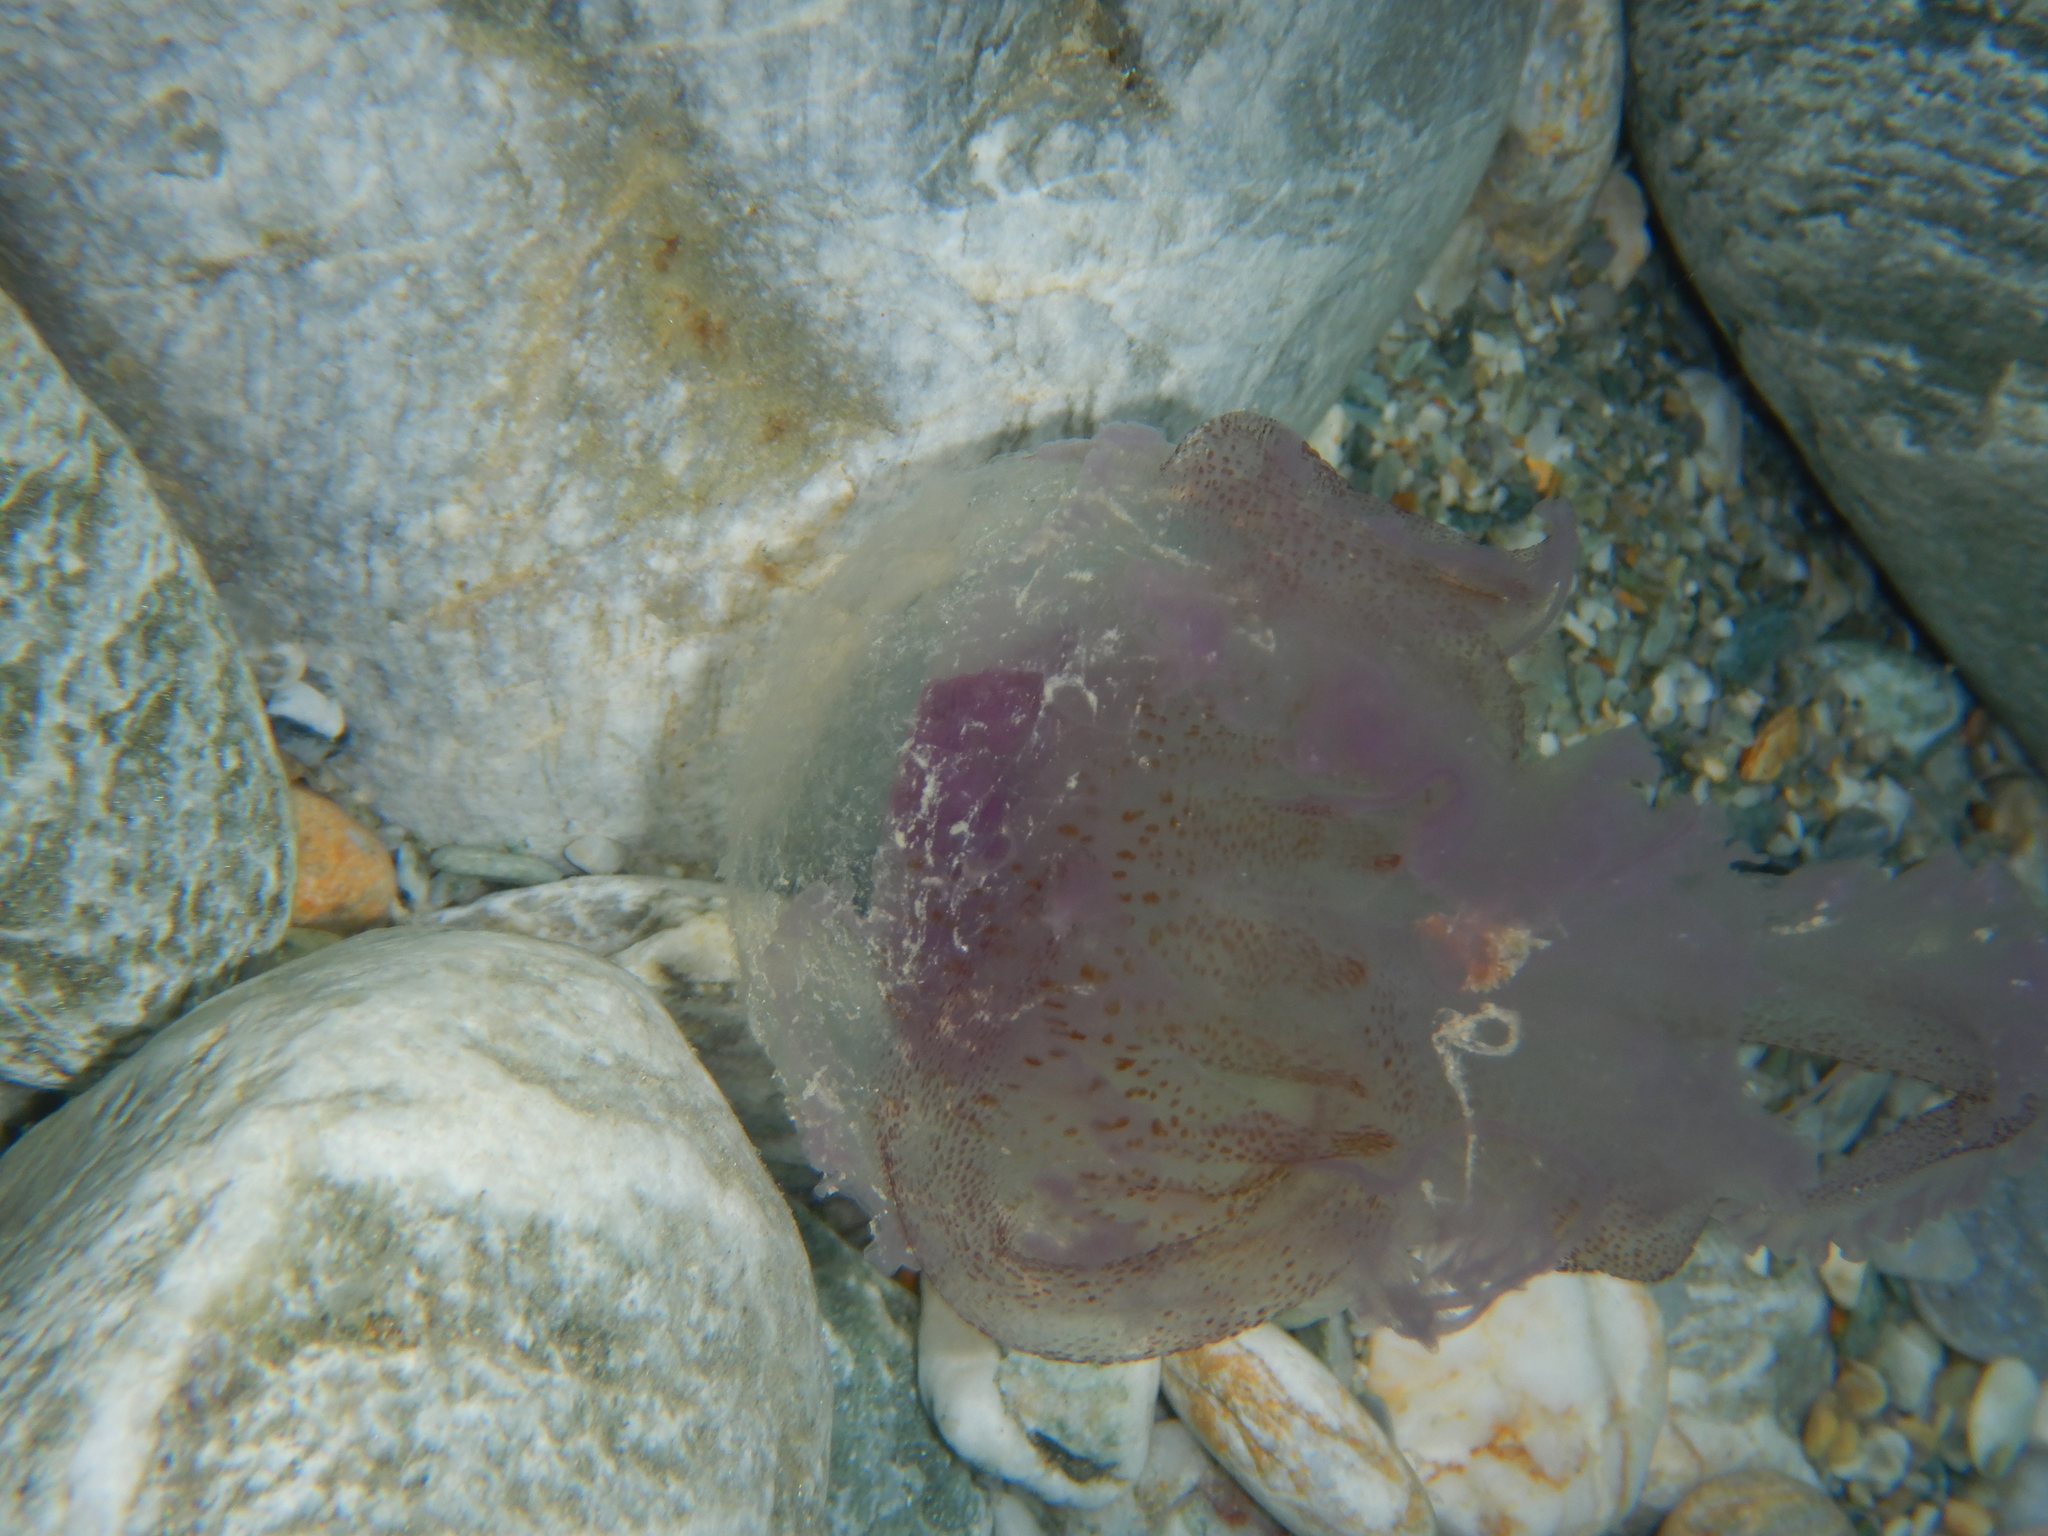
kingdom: Animalia
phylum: Cnidaria
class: Scyphozoa
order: Semaeostomeae
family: Pelagiidae
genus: Pelagia
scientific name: Pelagia noctiluca
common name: Mauve stinger
